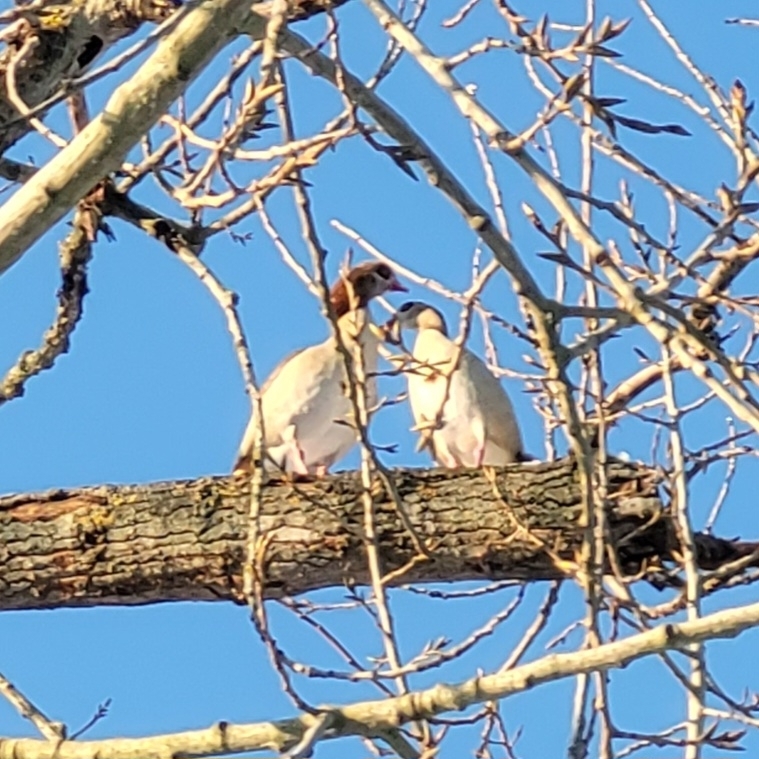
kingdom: Animalia
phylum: Chordata
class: Aves
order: Anseriformes
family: Anatidae
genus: Alopochen
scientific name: Alopochen aegyptiaca
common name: Egyptian goose
